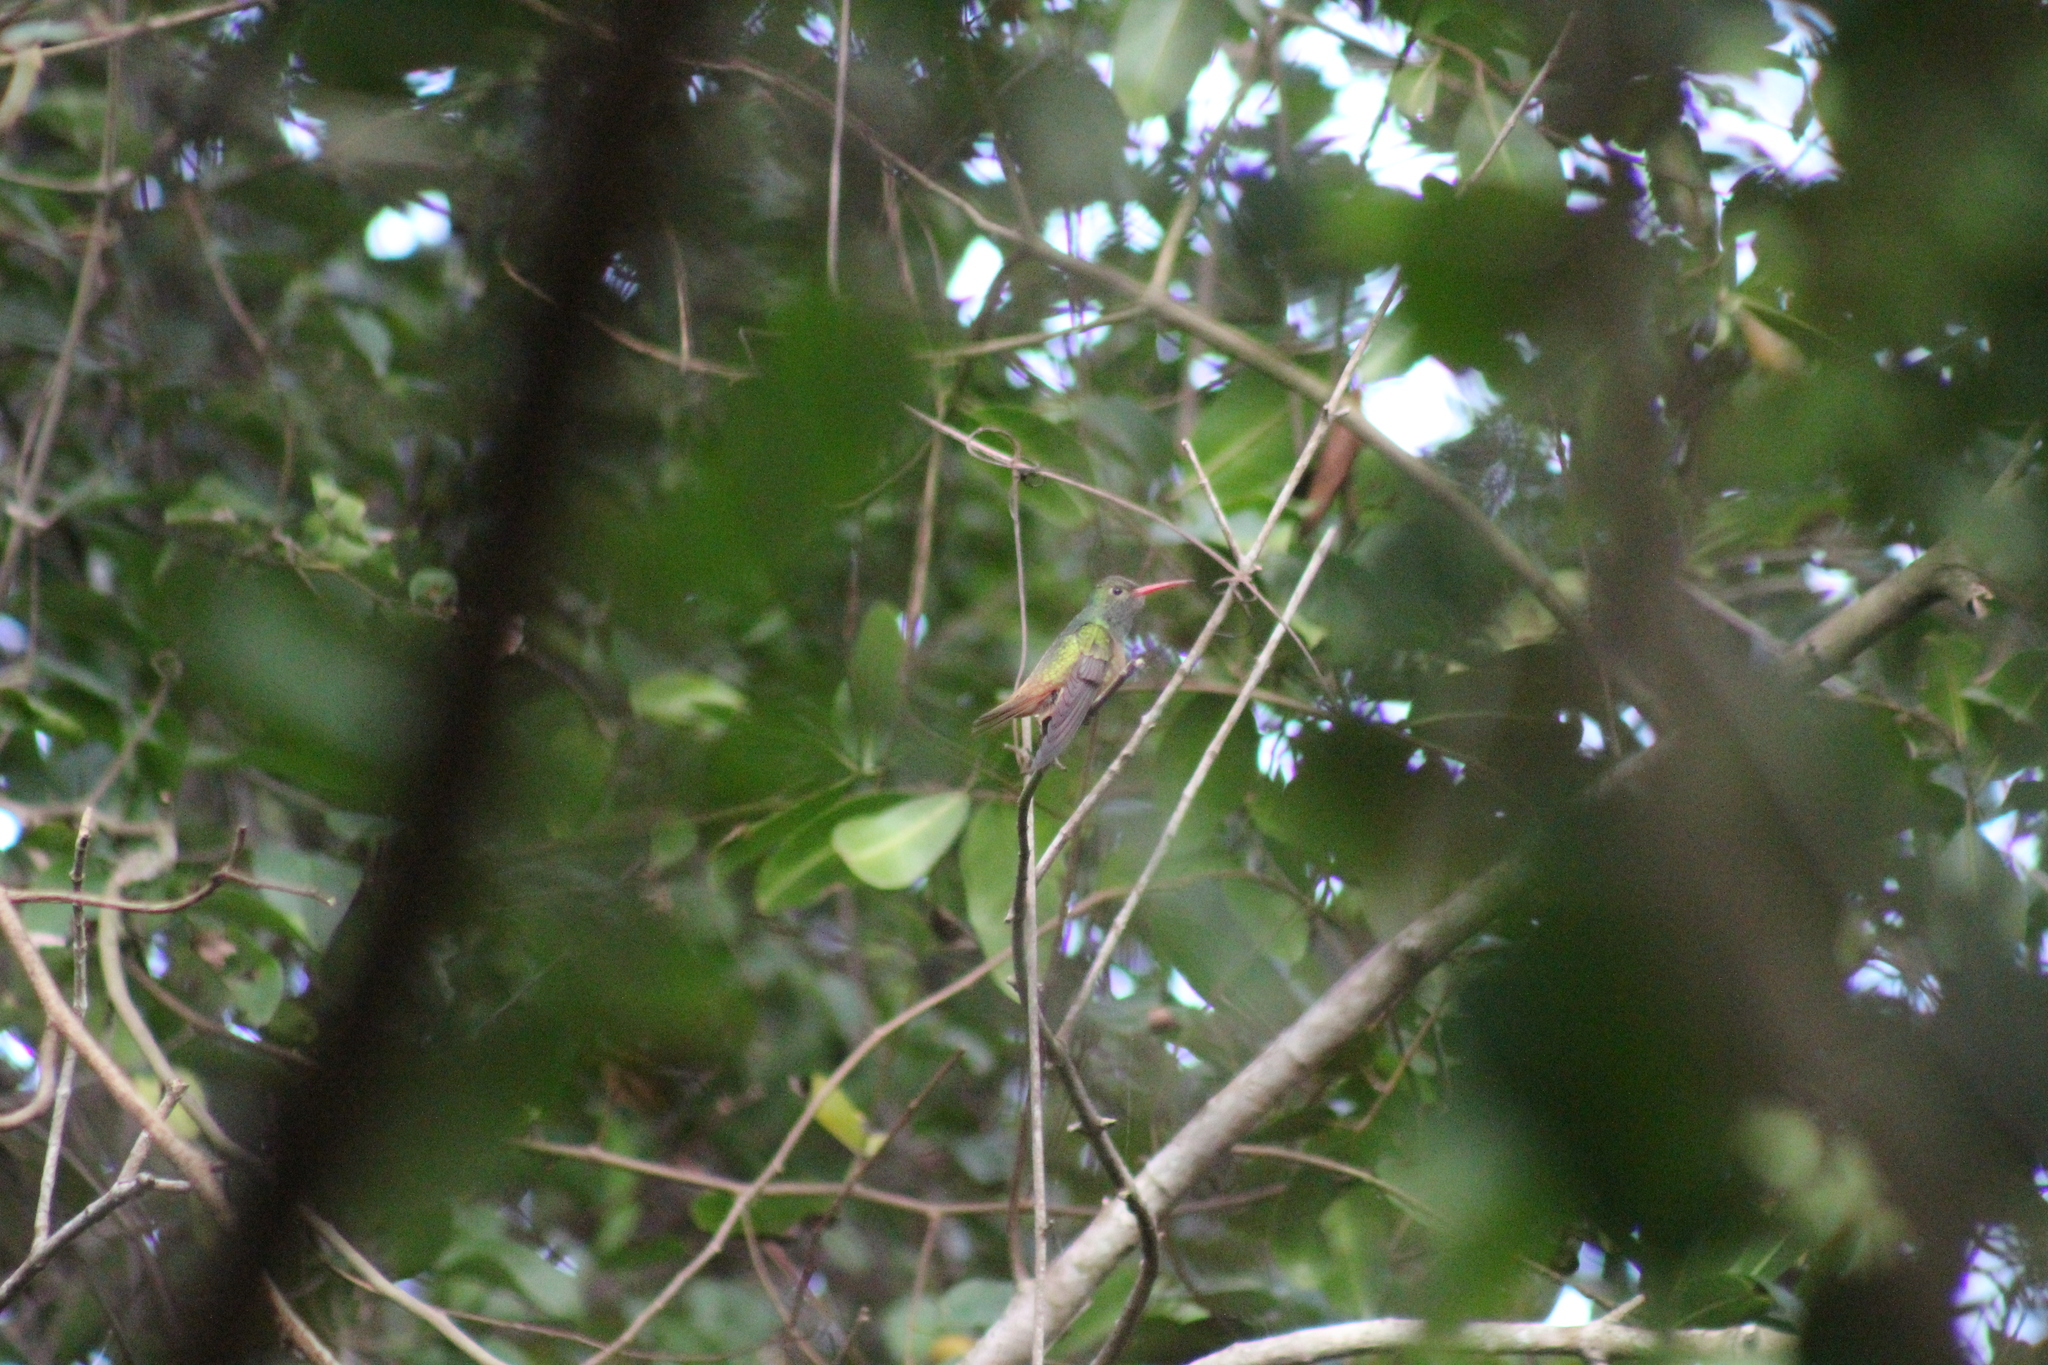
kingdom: Animalia
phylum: Chordata
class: Aves
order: Apodiformes
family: Trochilidae
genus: Amazilia
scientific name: Amazilia yucatanensis
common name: Buff-bellied hummingbird
